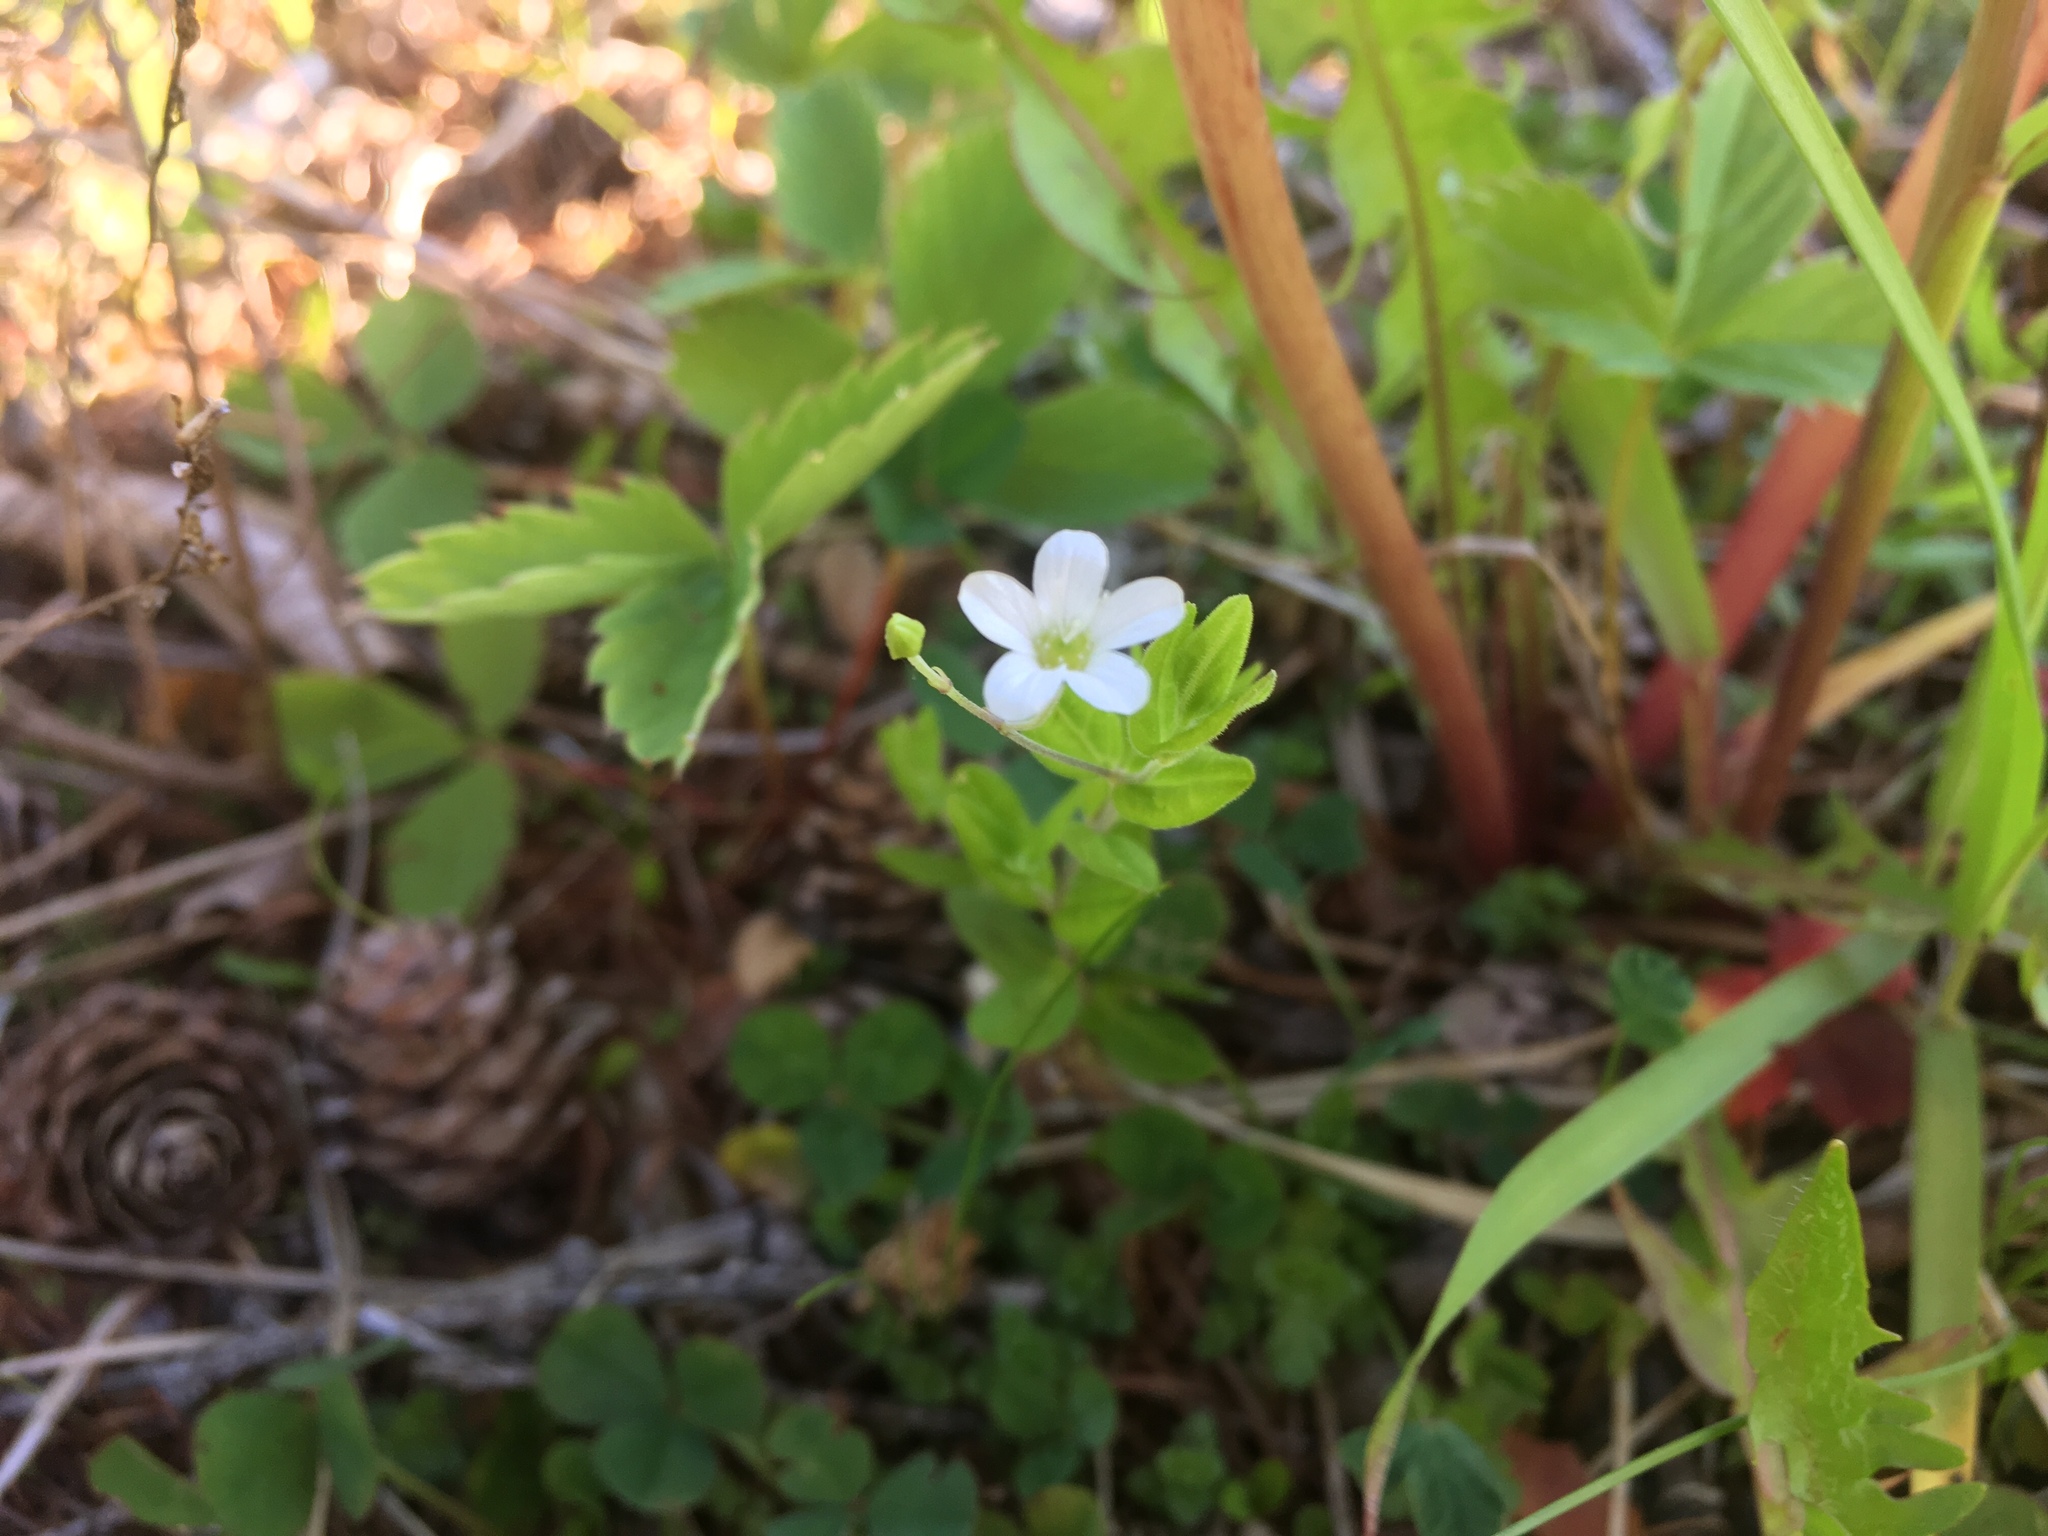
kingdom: Plantae
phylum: Tracheophyta
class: Magnoliopsida
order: Caryophyllales
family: Caryophyllaceae
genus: Moehringia
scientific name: Moehringia lateriflora
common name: Blunt-leaved sandwort
